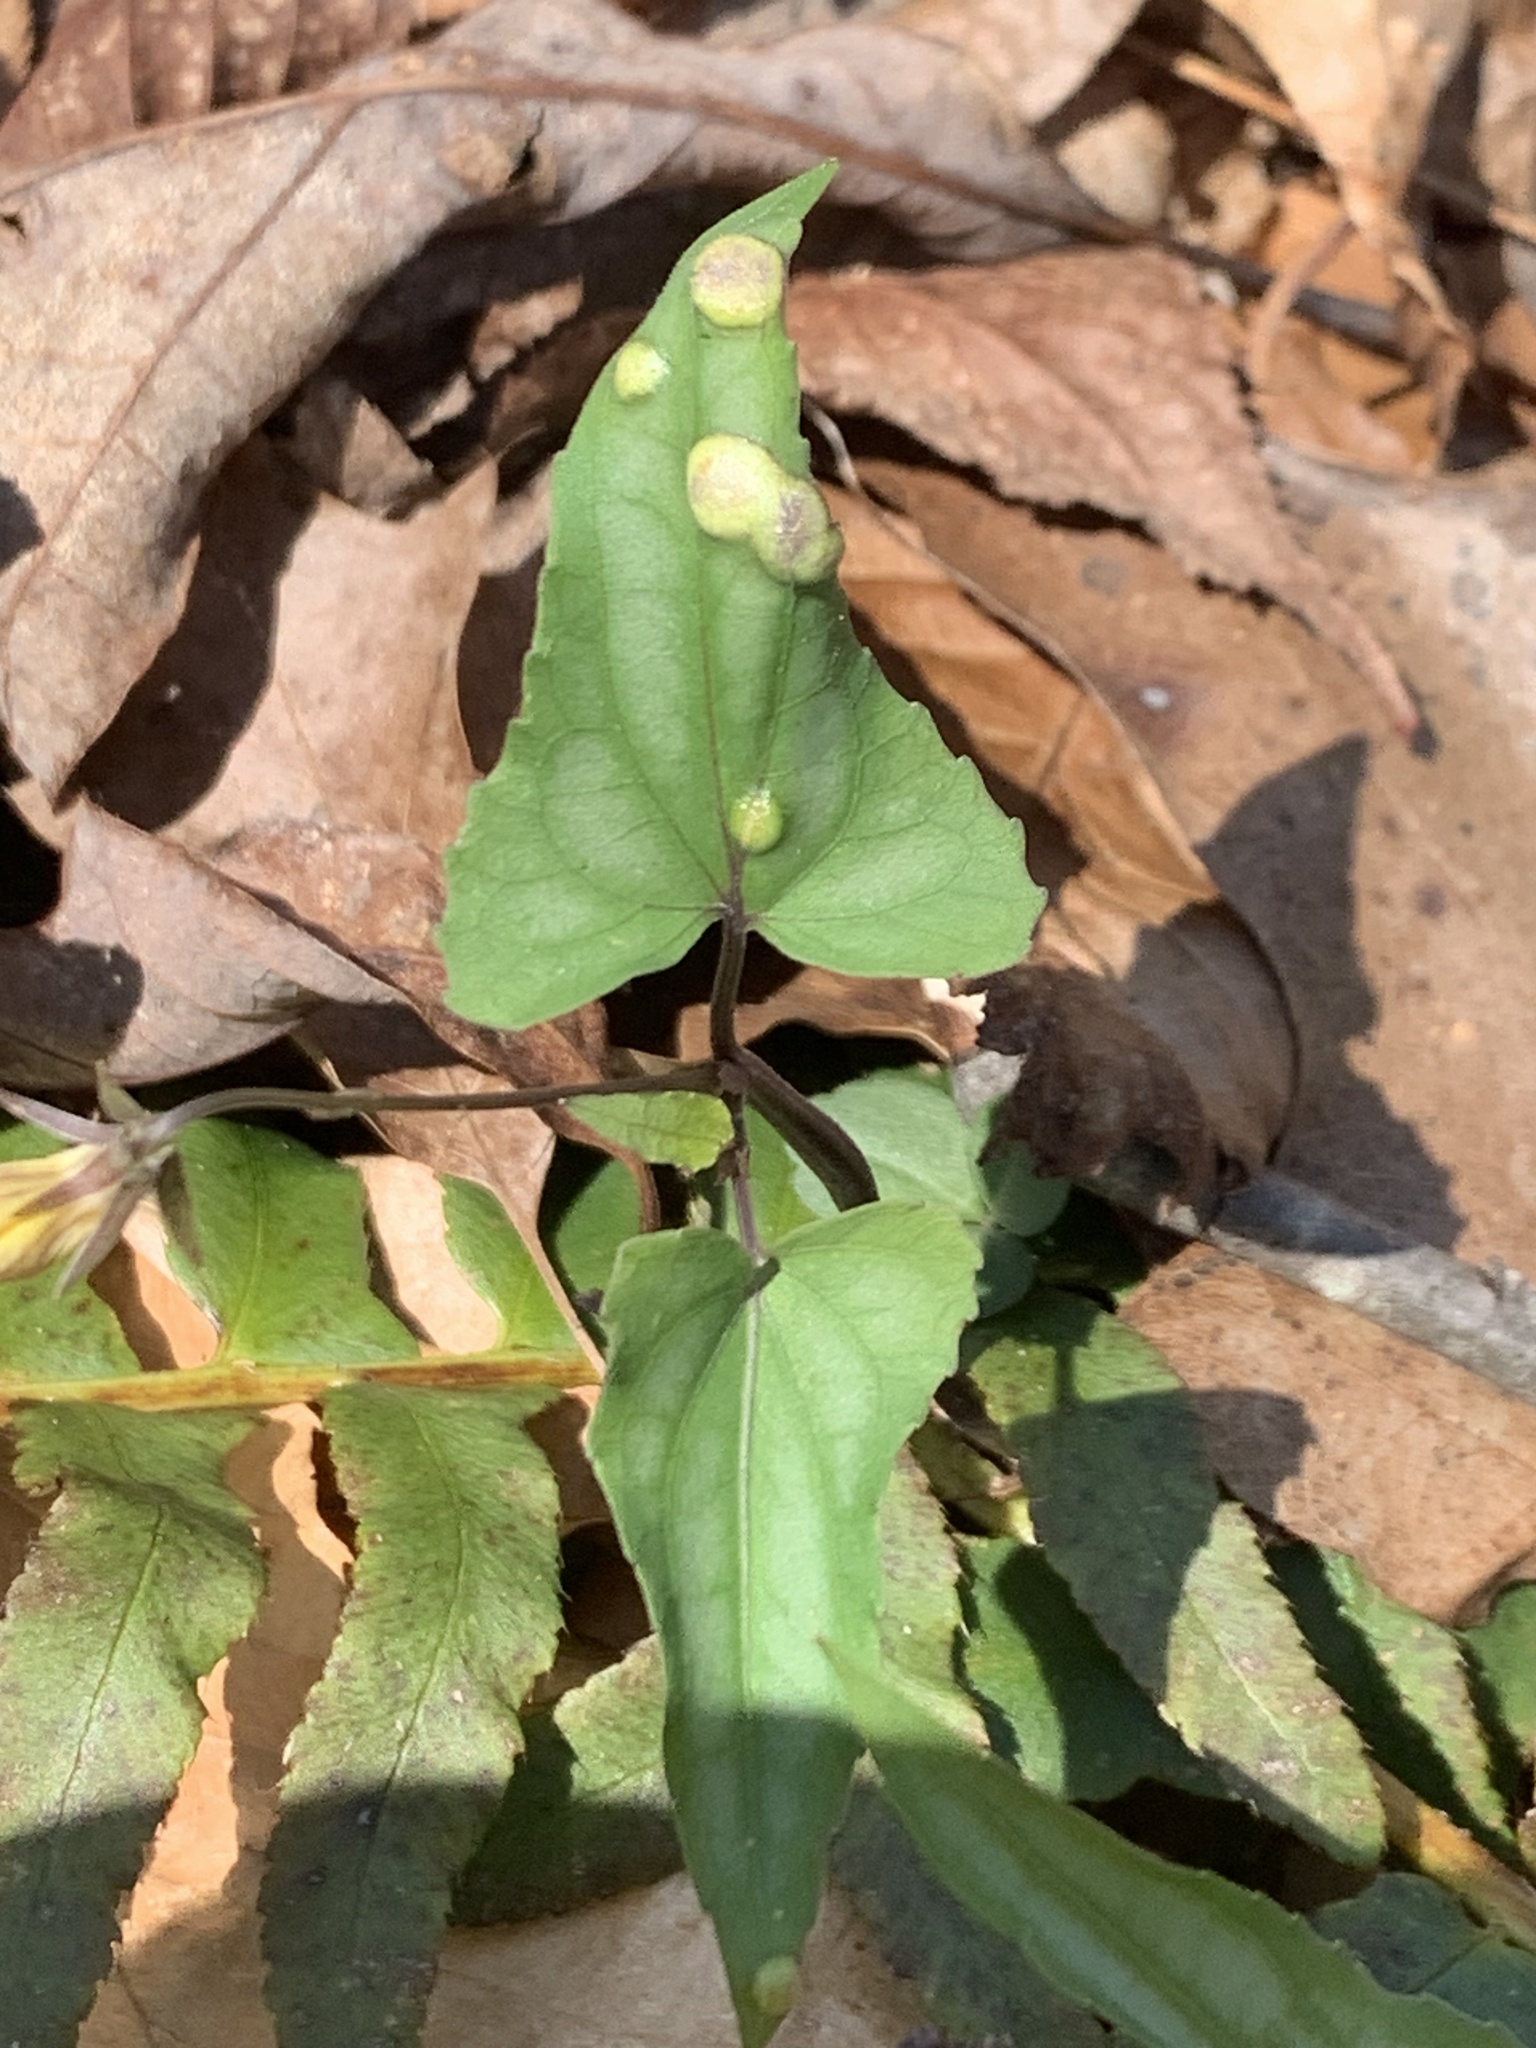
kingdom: Fungi
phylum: Basidiomycota
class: Pucciniomycetes
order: Pucciniales
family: Pucciniaceae
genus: Puccinia
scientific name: Puccinia violae
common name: Violet rust
